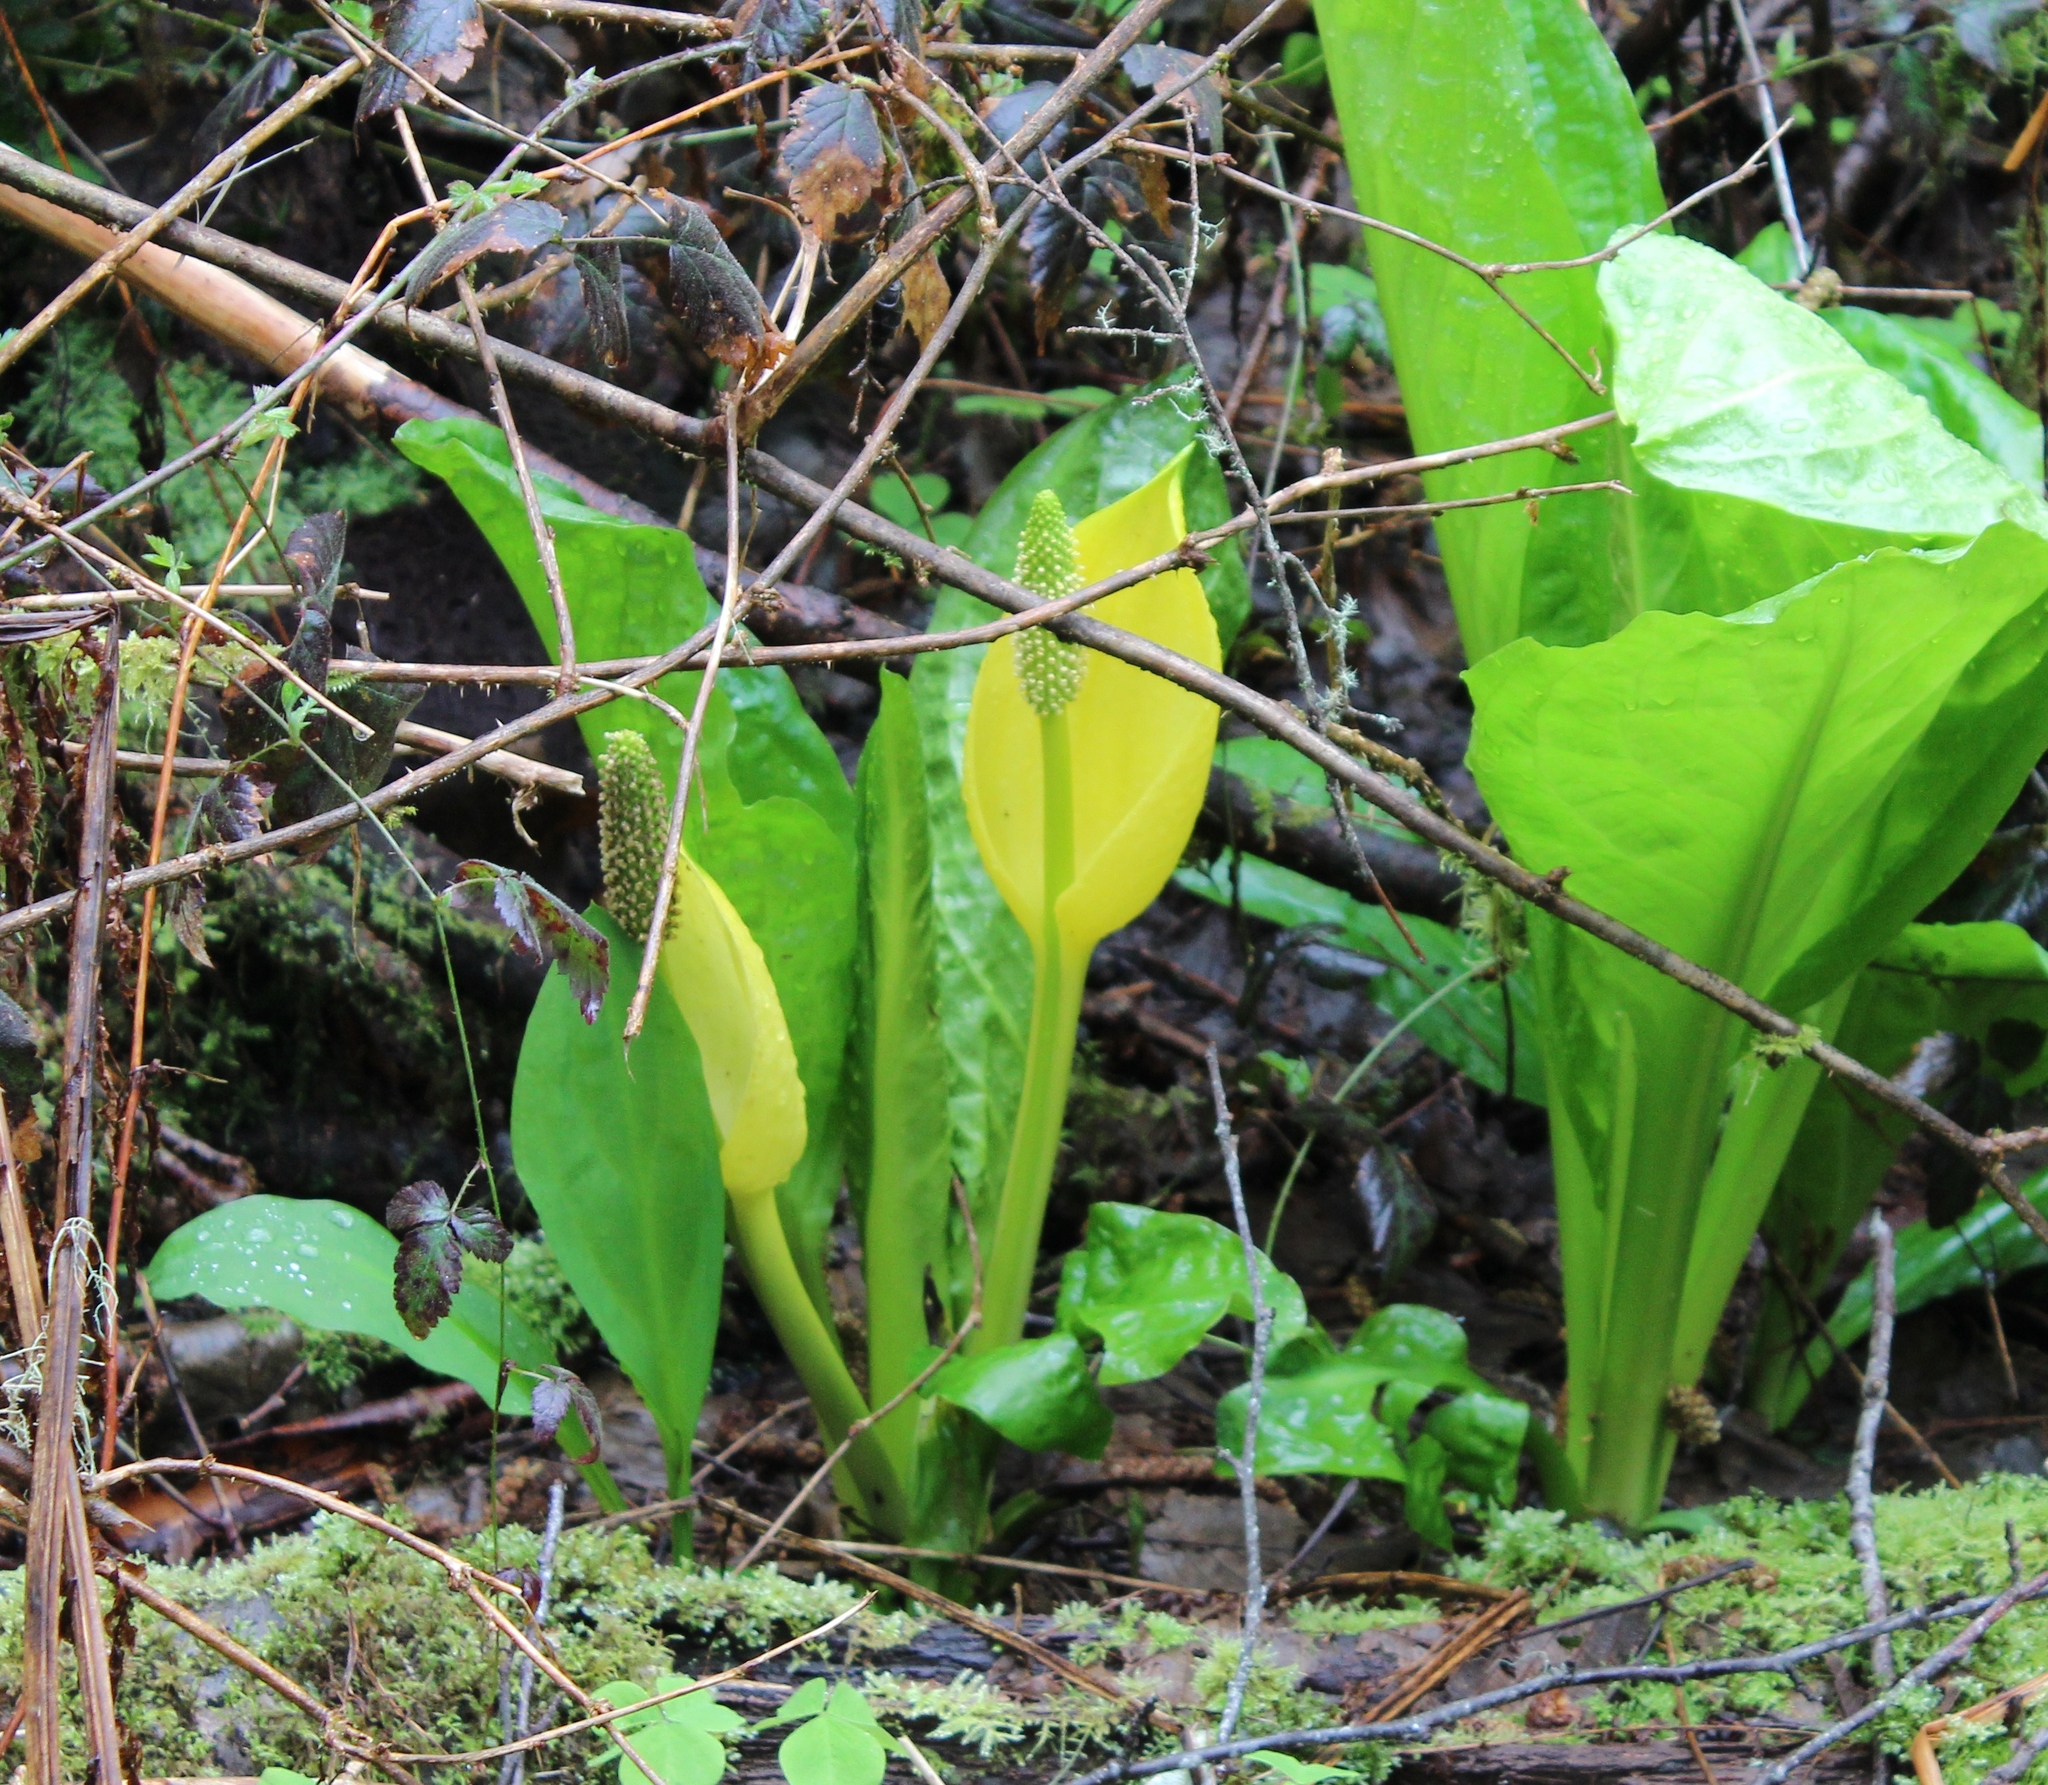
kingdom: Plantae
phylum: Tracheophyta
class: Liliopsida
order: Alismatales
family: Araceae
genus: Lysichiton
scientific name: Lysichiton americanus
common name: American skunk cabbage
